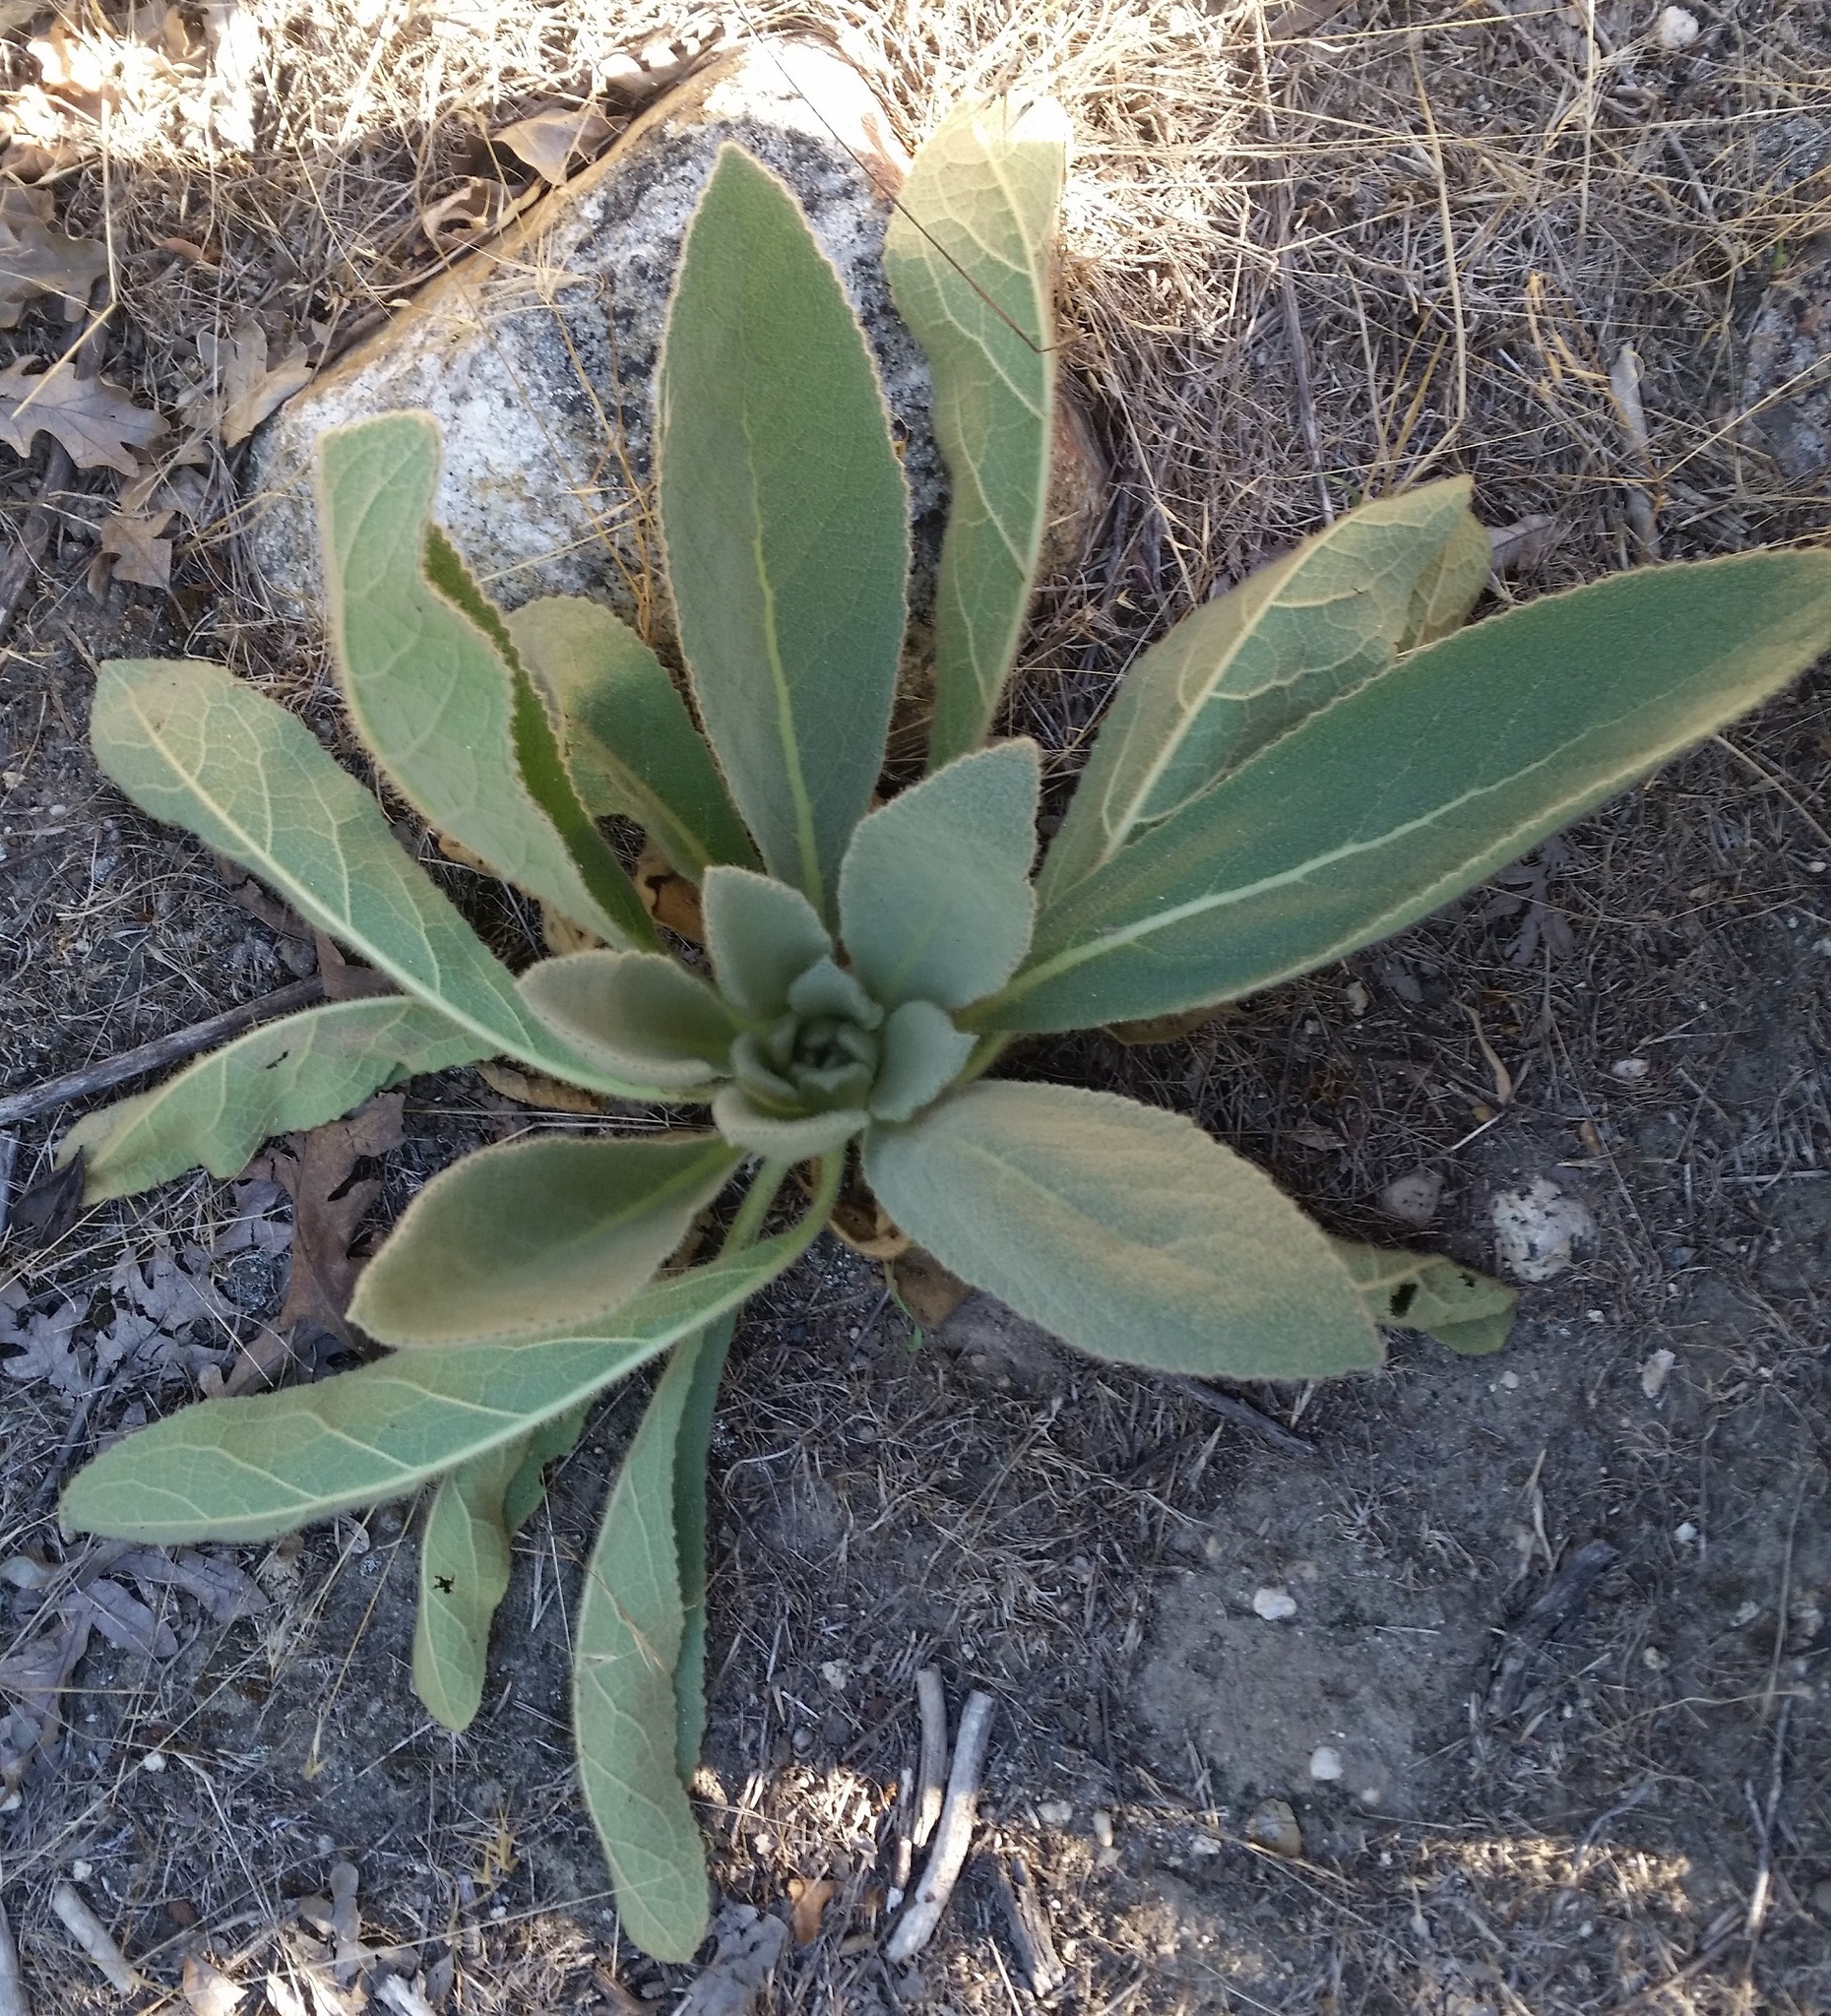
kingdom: Plantae
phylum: Tracheophyta
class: Magnoliopsida
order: Lamiales
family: Scrophulariaceae
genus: Verbascum
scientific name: Verbascum thapsus
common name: Common mullein
